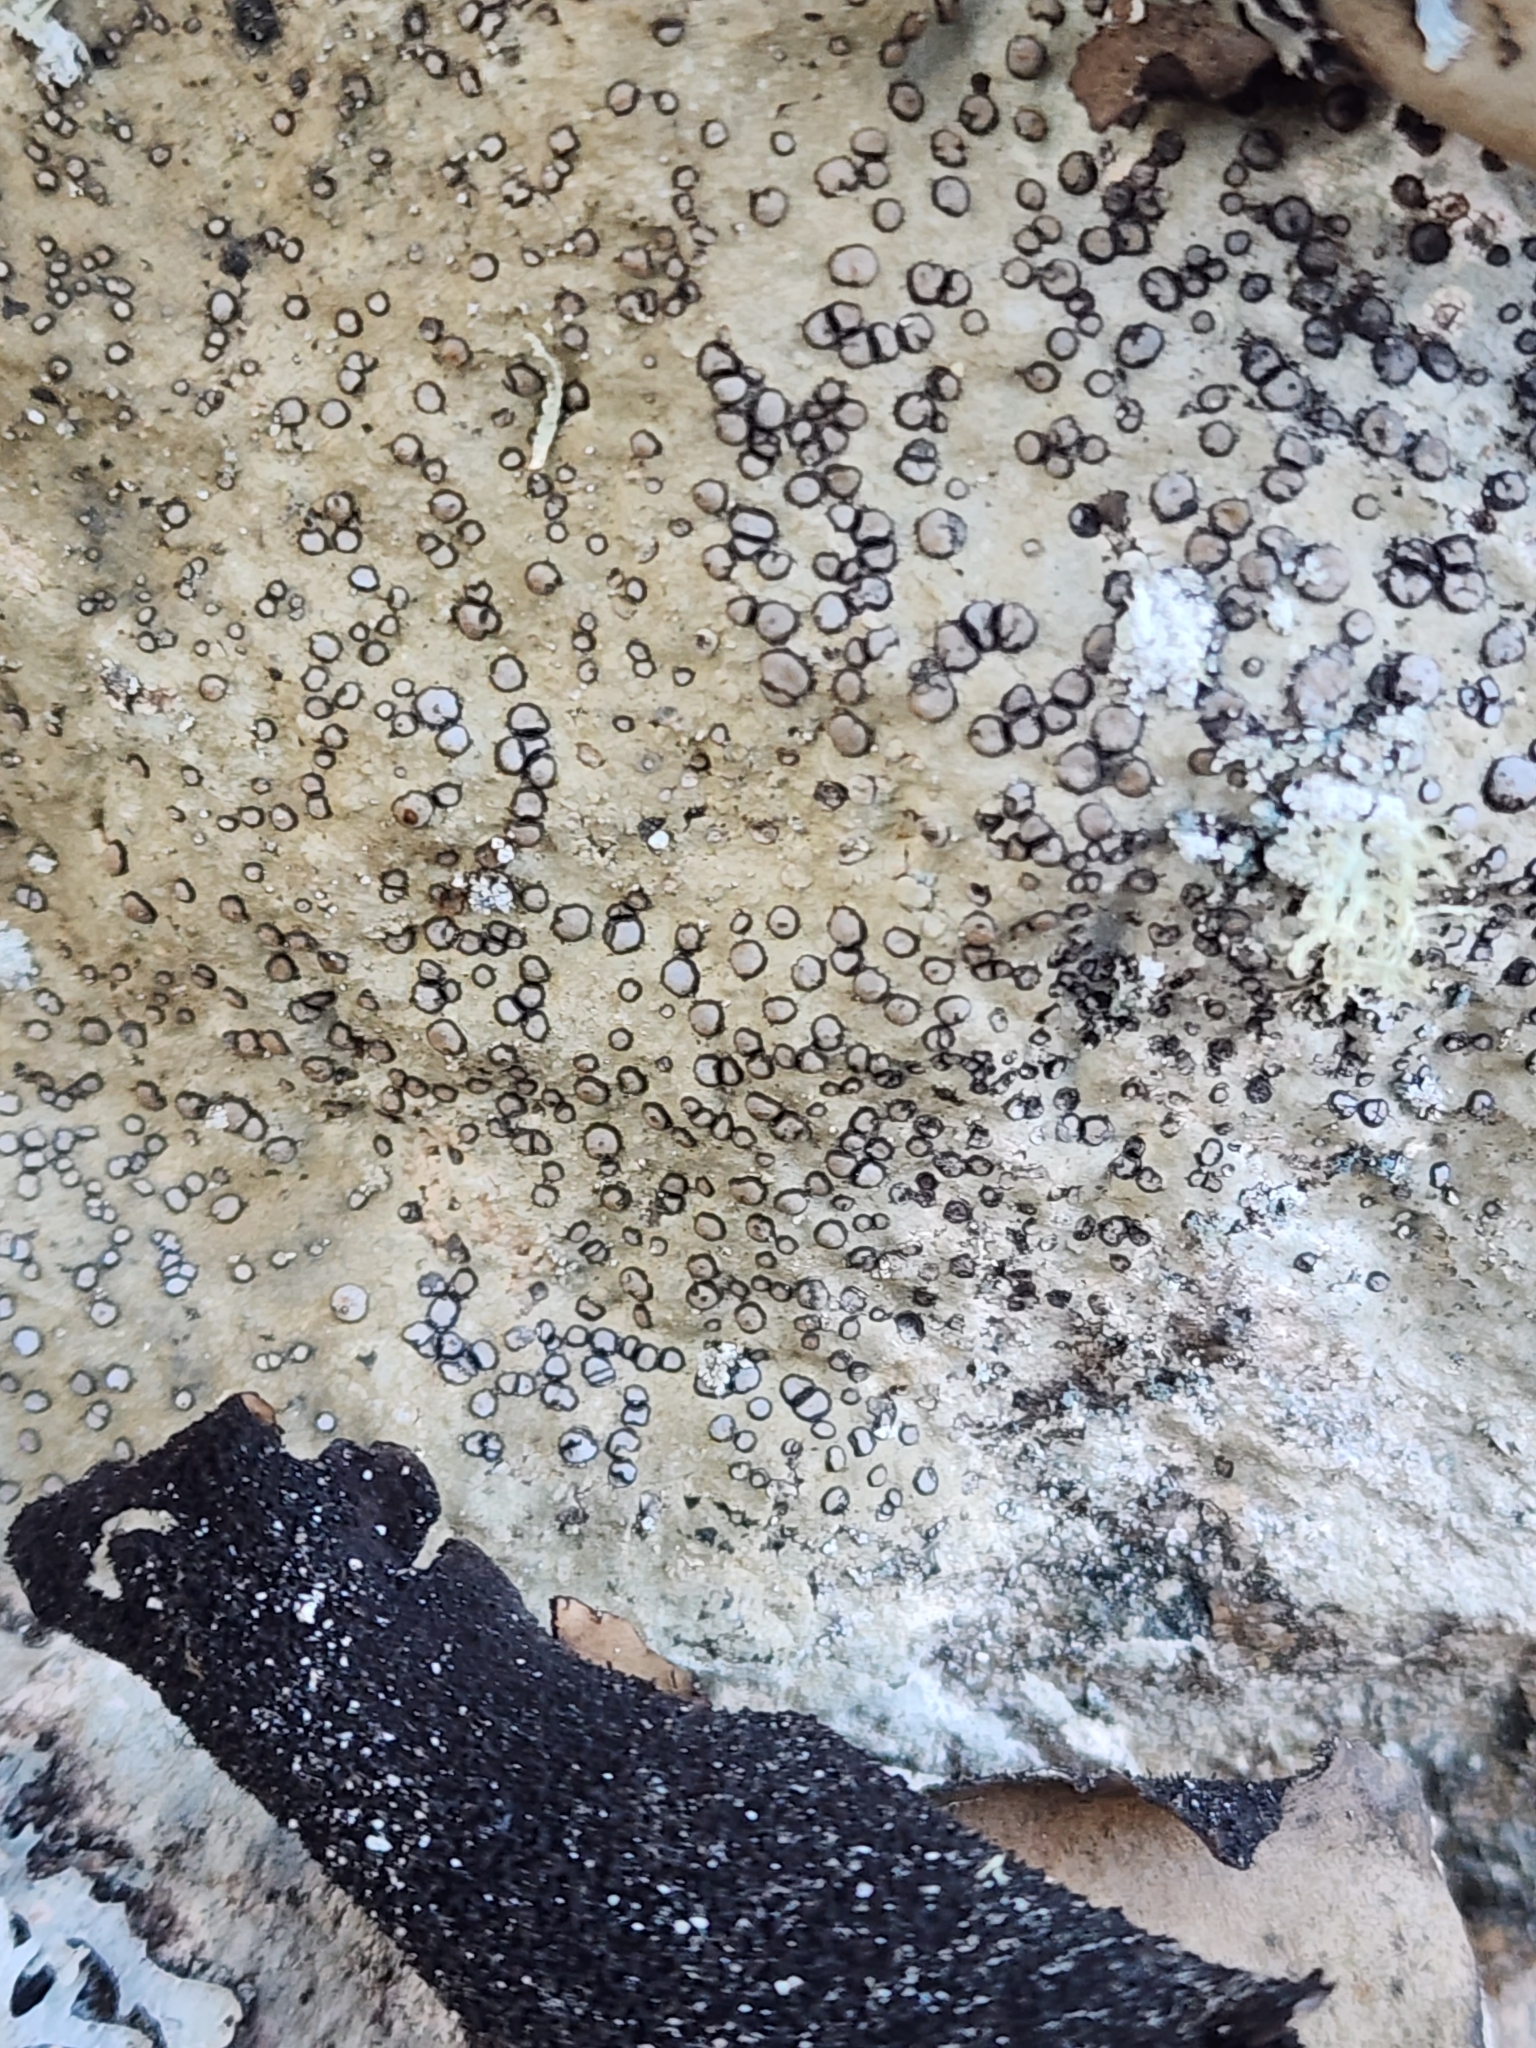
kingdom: Fungi
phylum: Ascomycota
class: Lecanoromycetes
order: Lecideales
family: Lecideaceae
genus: Porpidia
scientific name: Porpidia albocaerulescens
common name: Smokey-eyed boulder lichen
